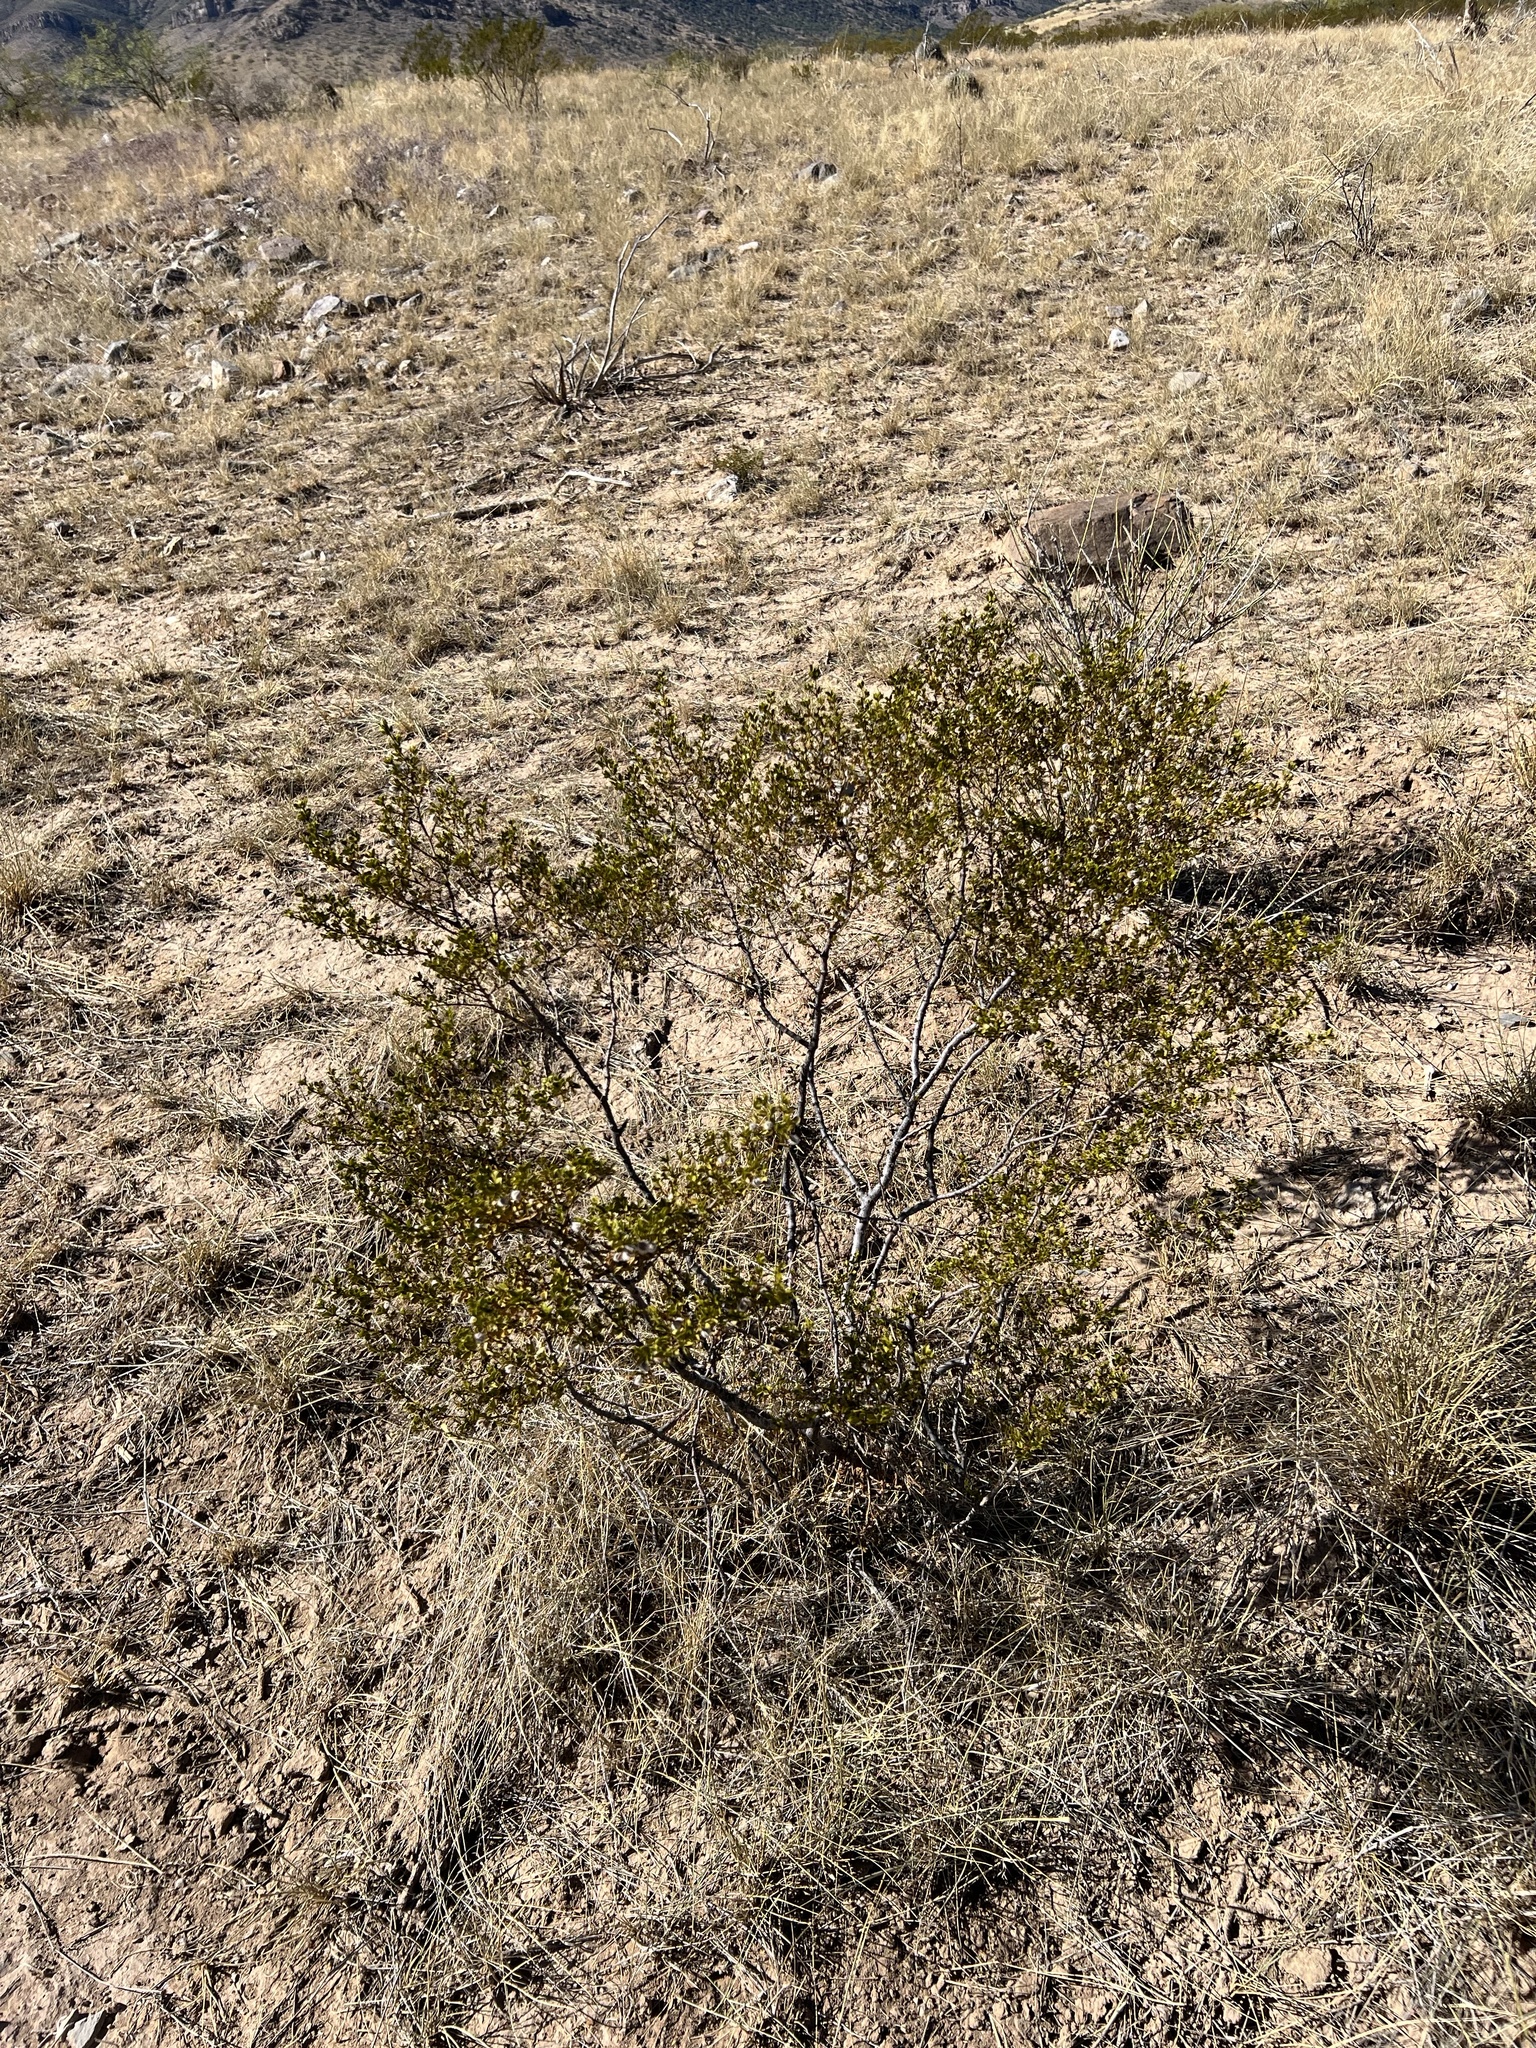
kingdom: Plantae
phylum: Tracheophyta
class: Magnoliopsida
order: Zygophyllales
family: Zygophyllaceae
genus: Larrea
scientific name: Larrea tridentata
